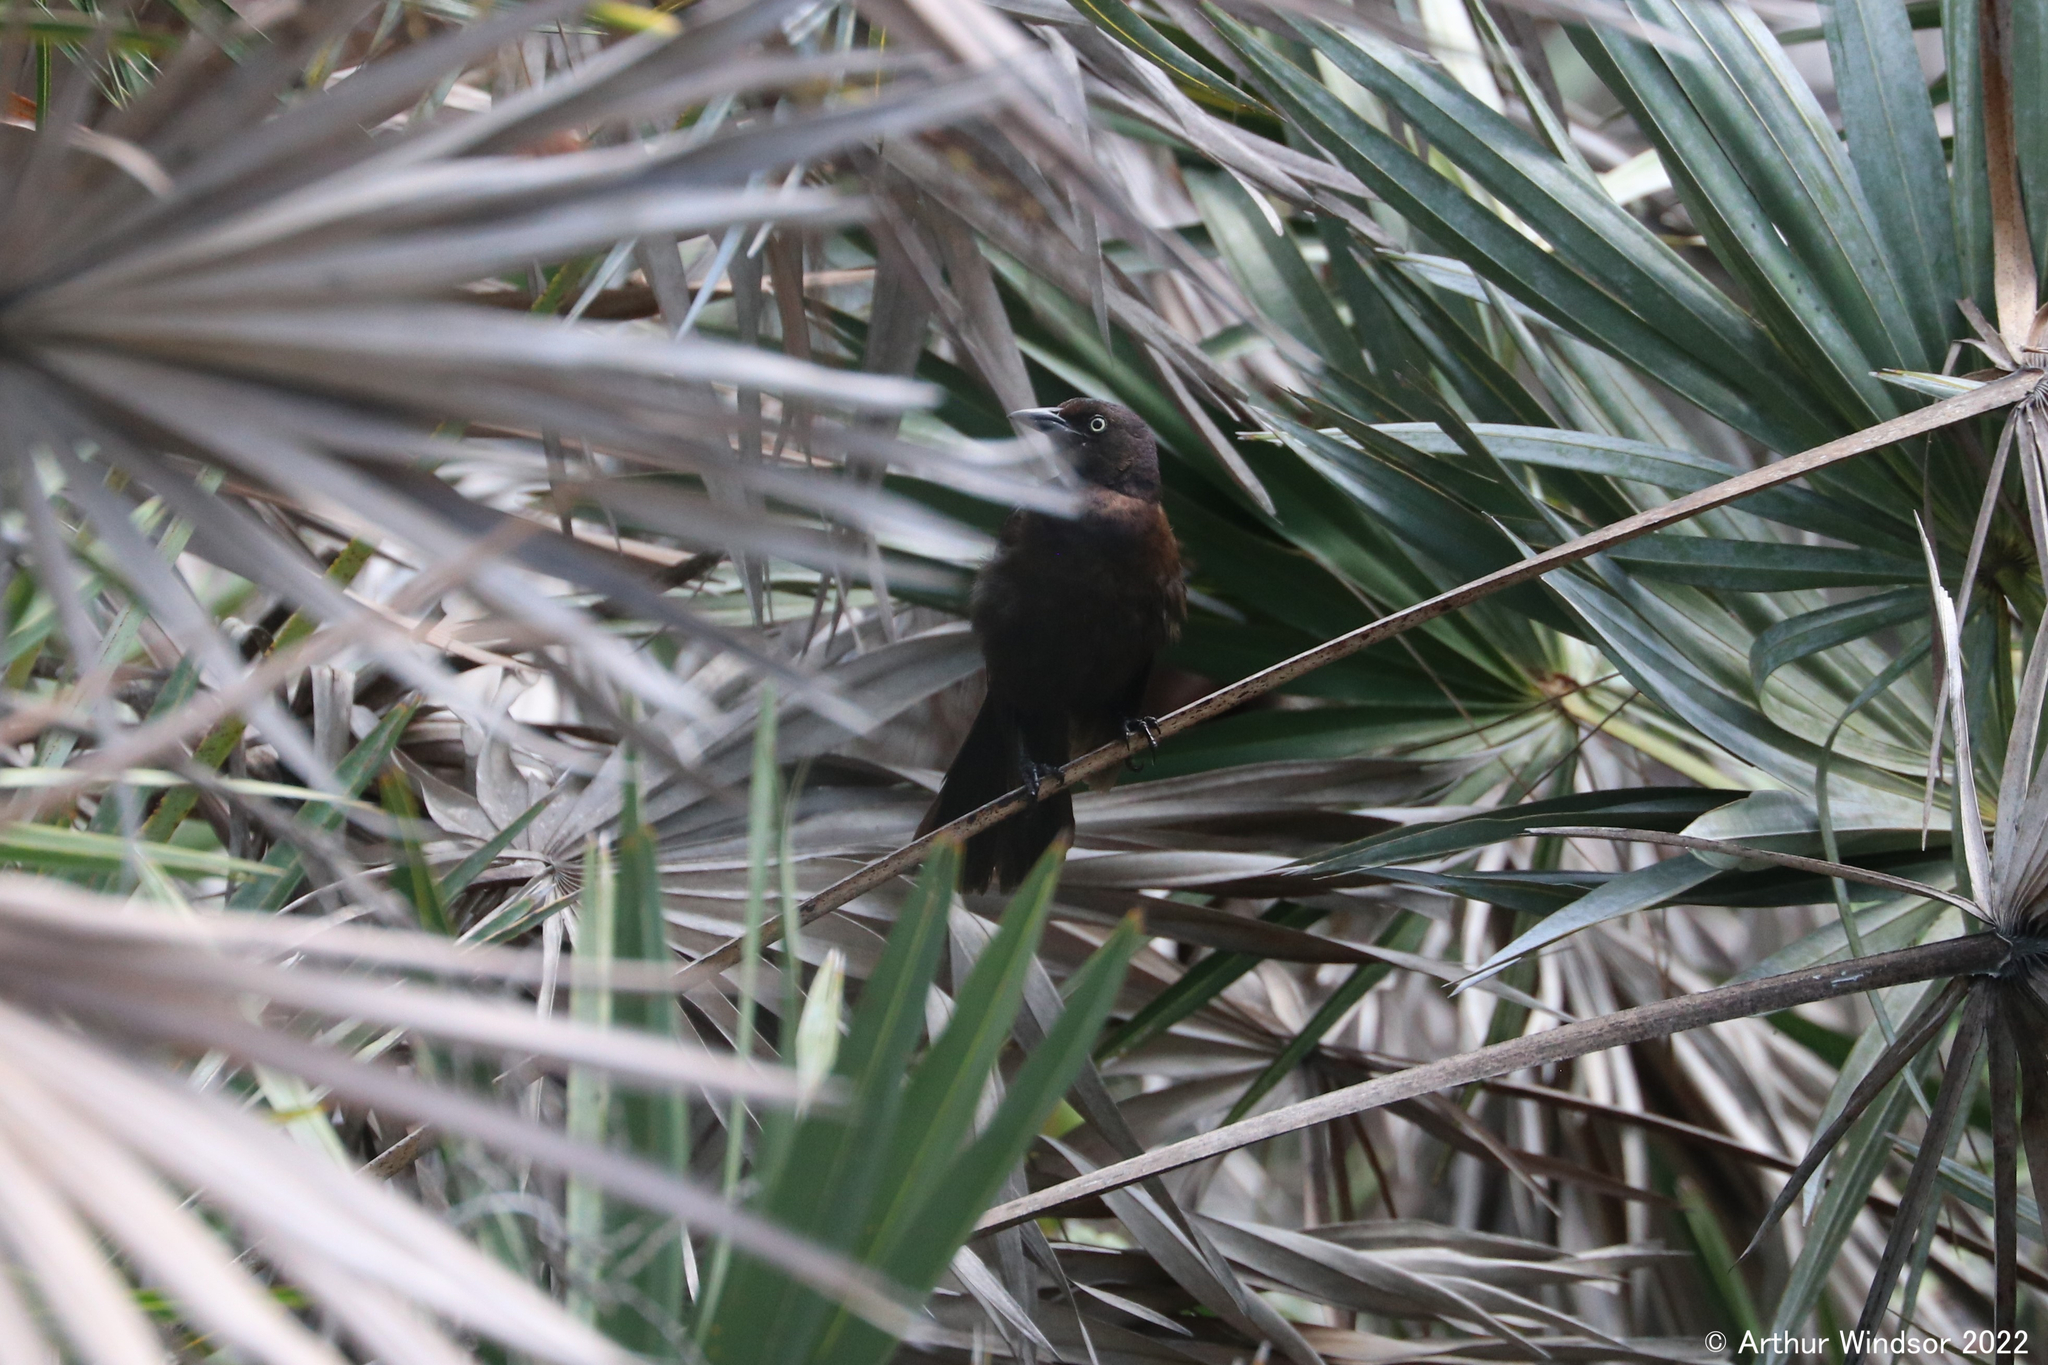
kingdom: Animalia
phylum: Chordata
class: Aves
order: Passeriformes
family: Icteridae
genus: Quiscalus
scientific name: Quiscalus quiscula
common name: Common grackle
